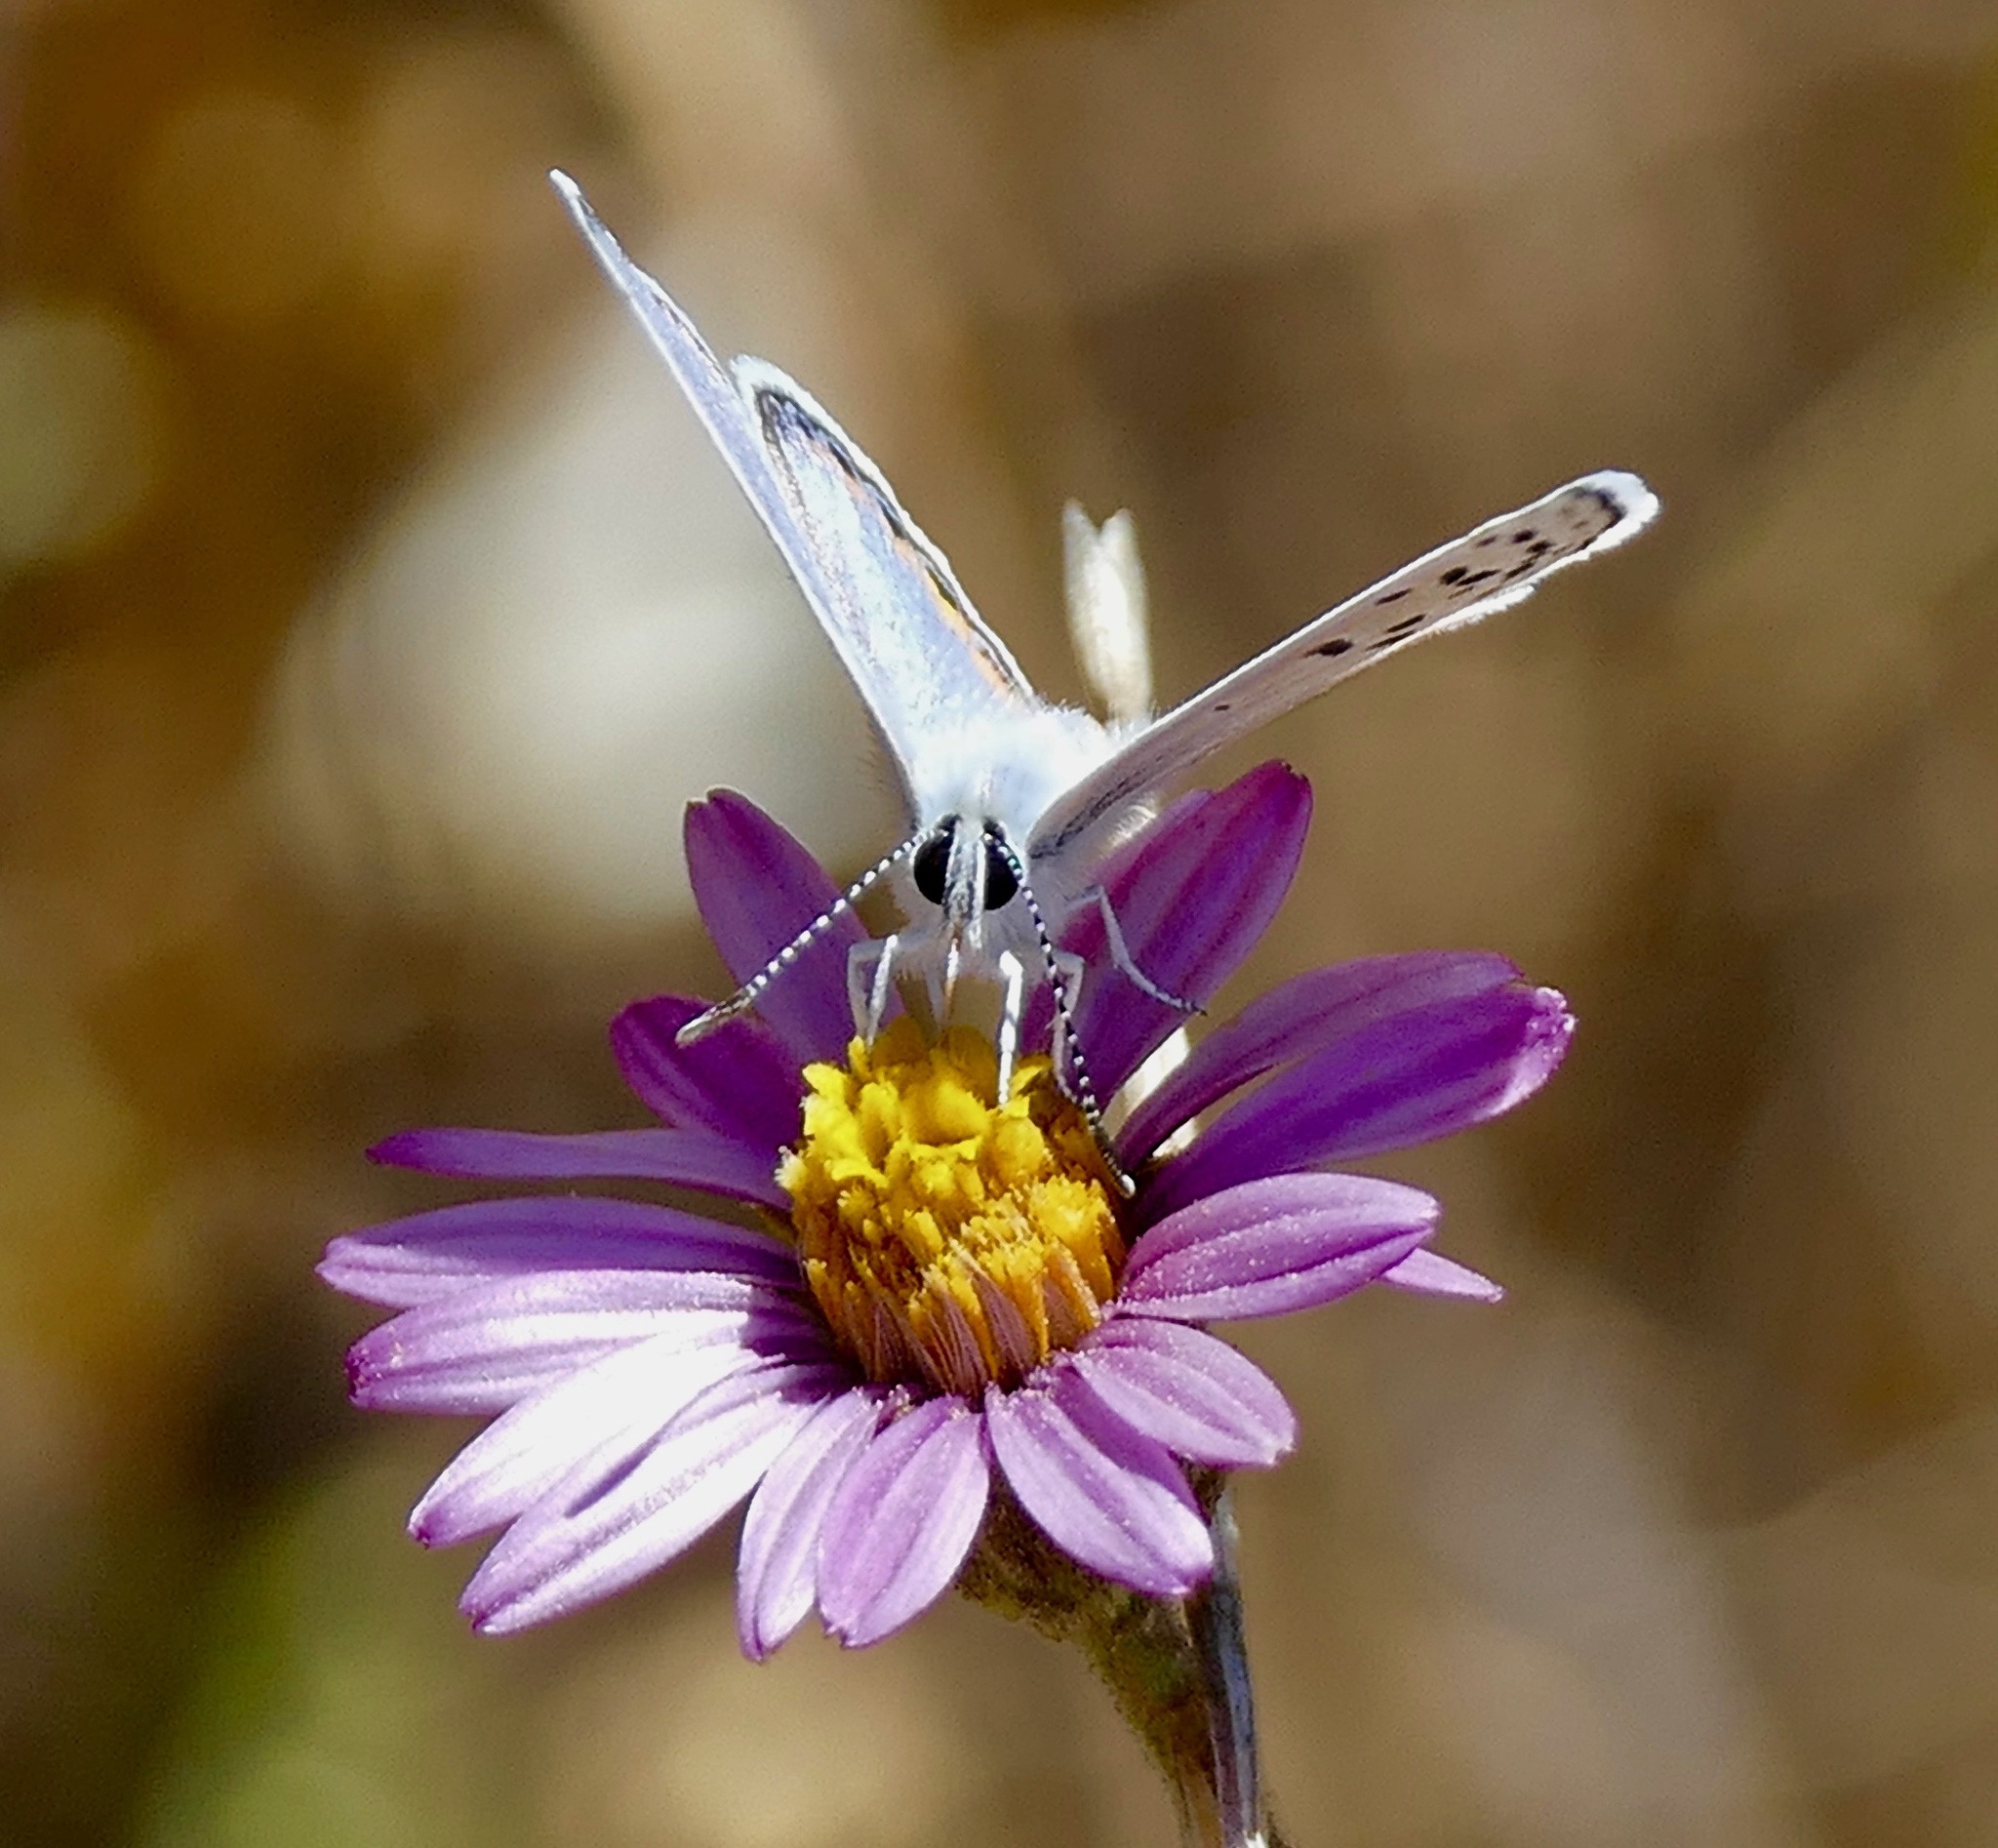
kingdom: Animalia
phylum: Arthropoda
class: Insecta
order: Lepidoptera
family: Lycaenidae
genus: Icaricia
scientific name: Icaricia acmon
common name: Acmon blue
